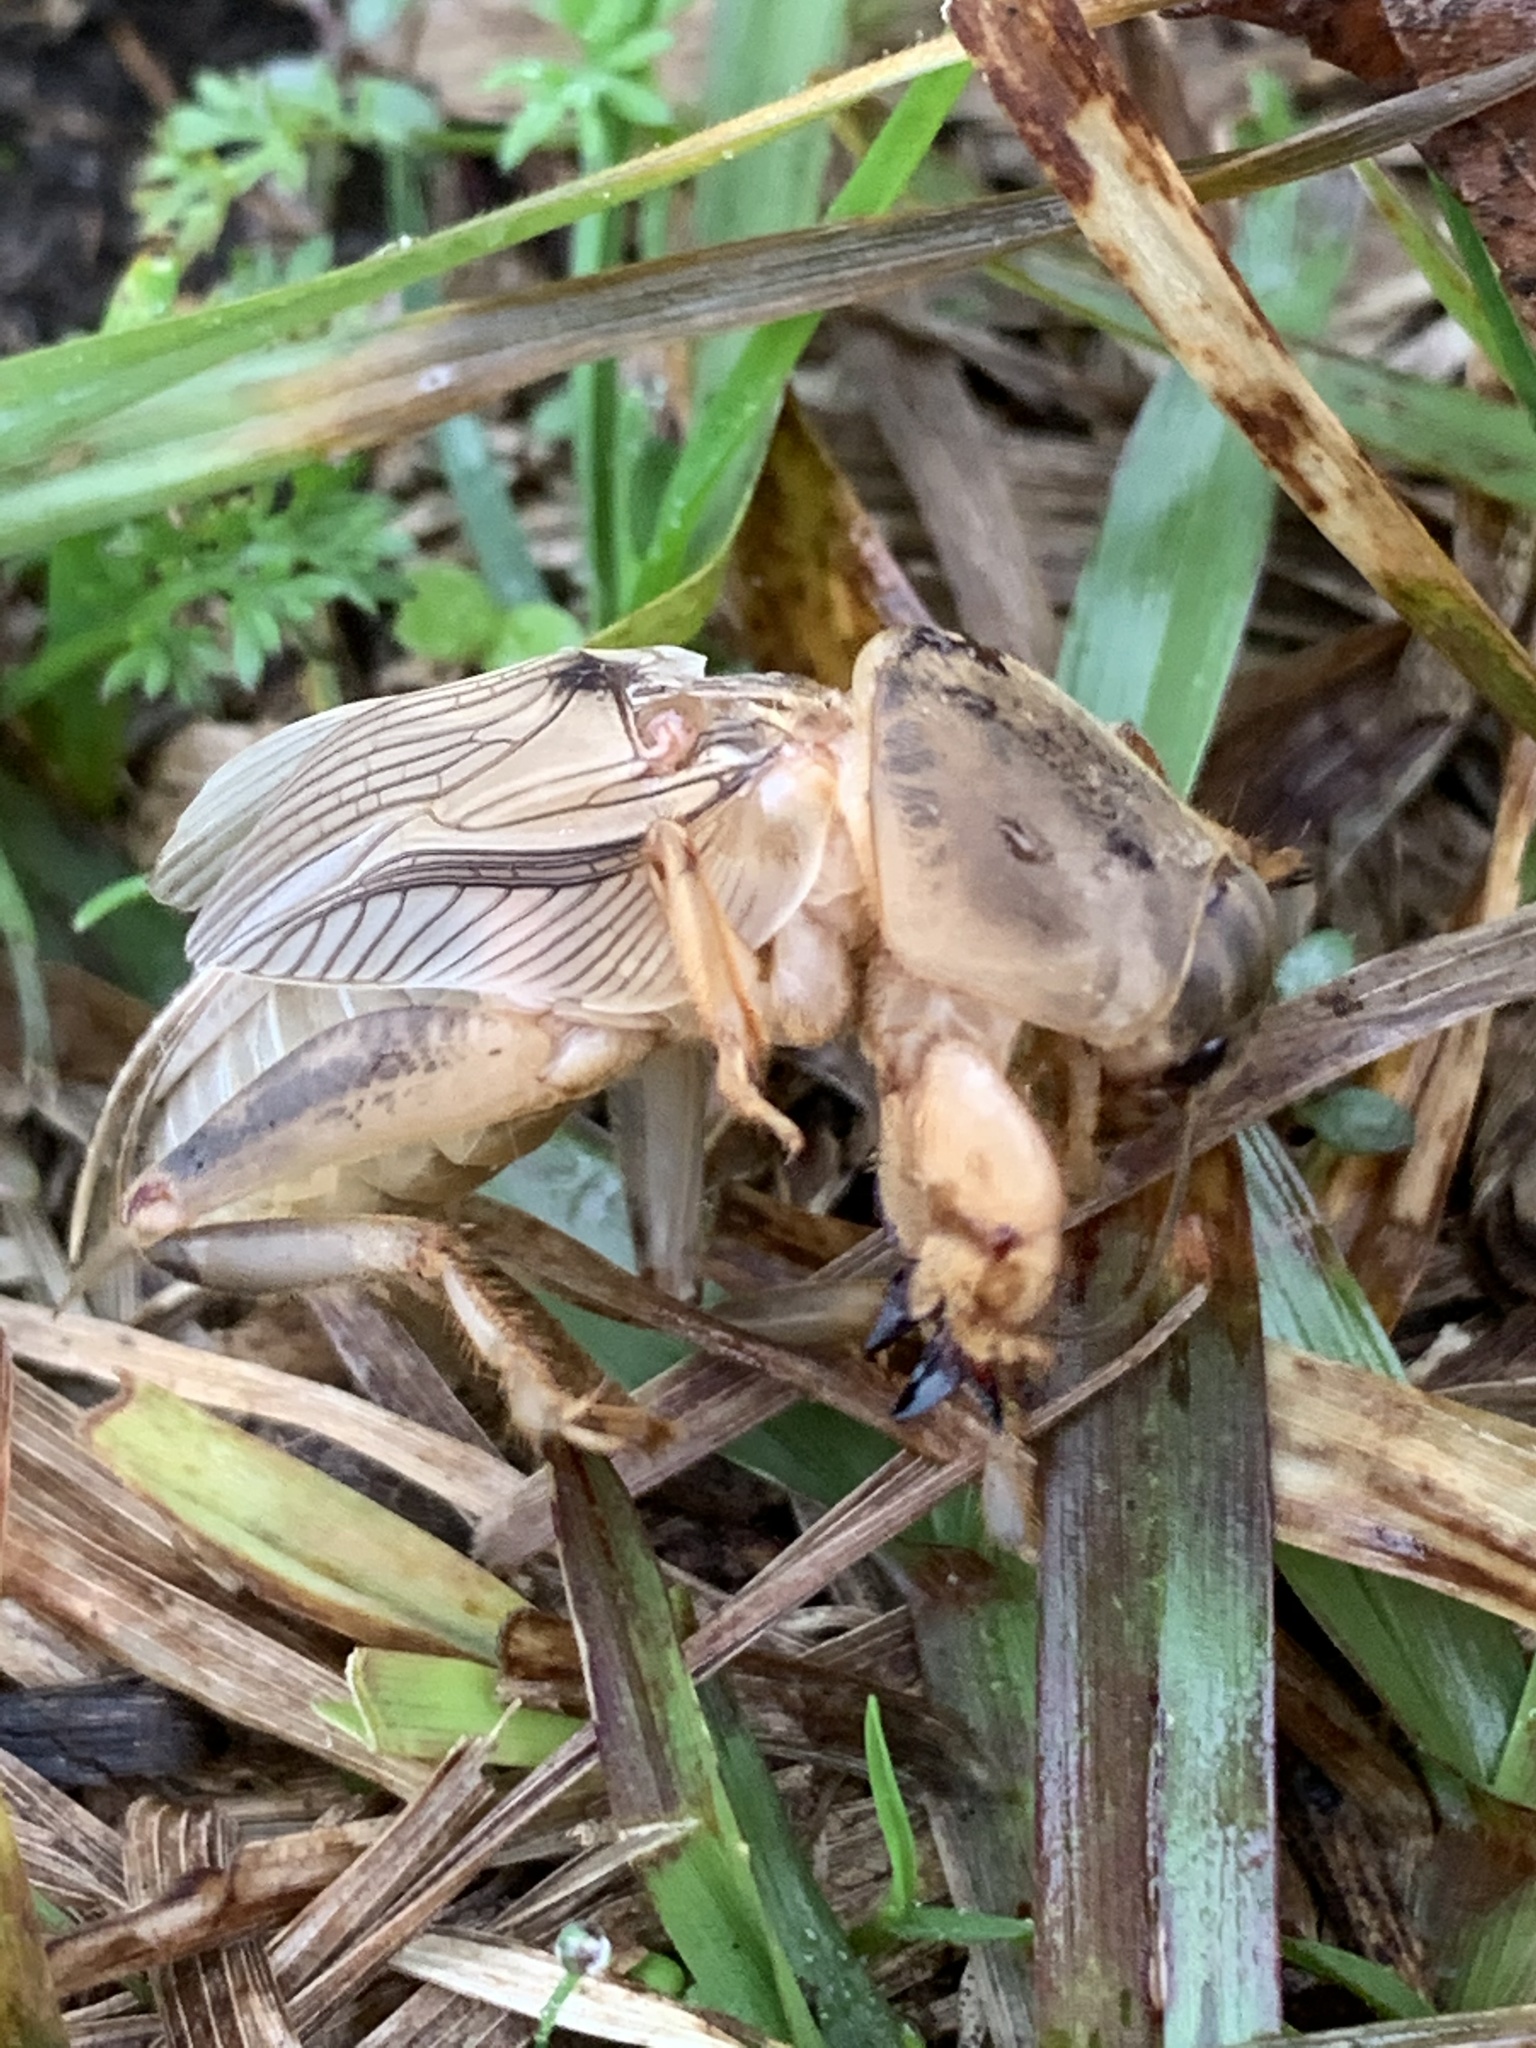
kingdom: Animalia
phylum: Arthropoda
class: Insecta
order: Orthoptera
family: Gryllotalpidae
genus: Neoscapteriscus
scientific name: Neoscapteriscus vicinus
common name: Tawny mole cricket
